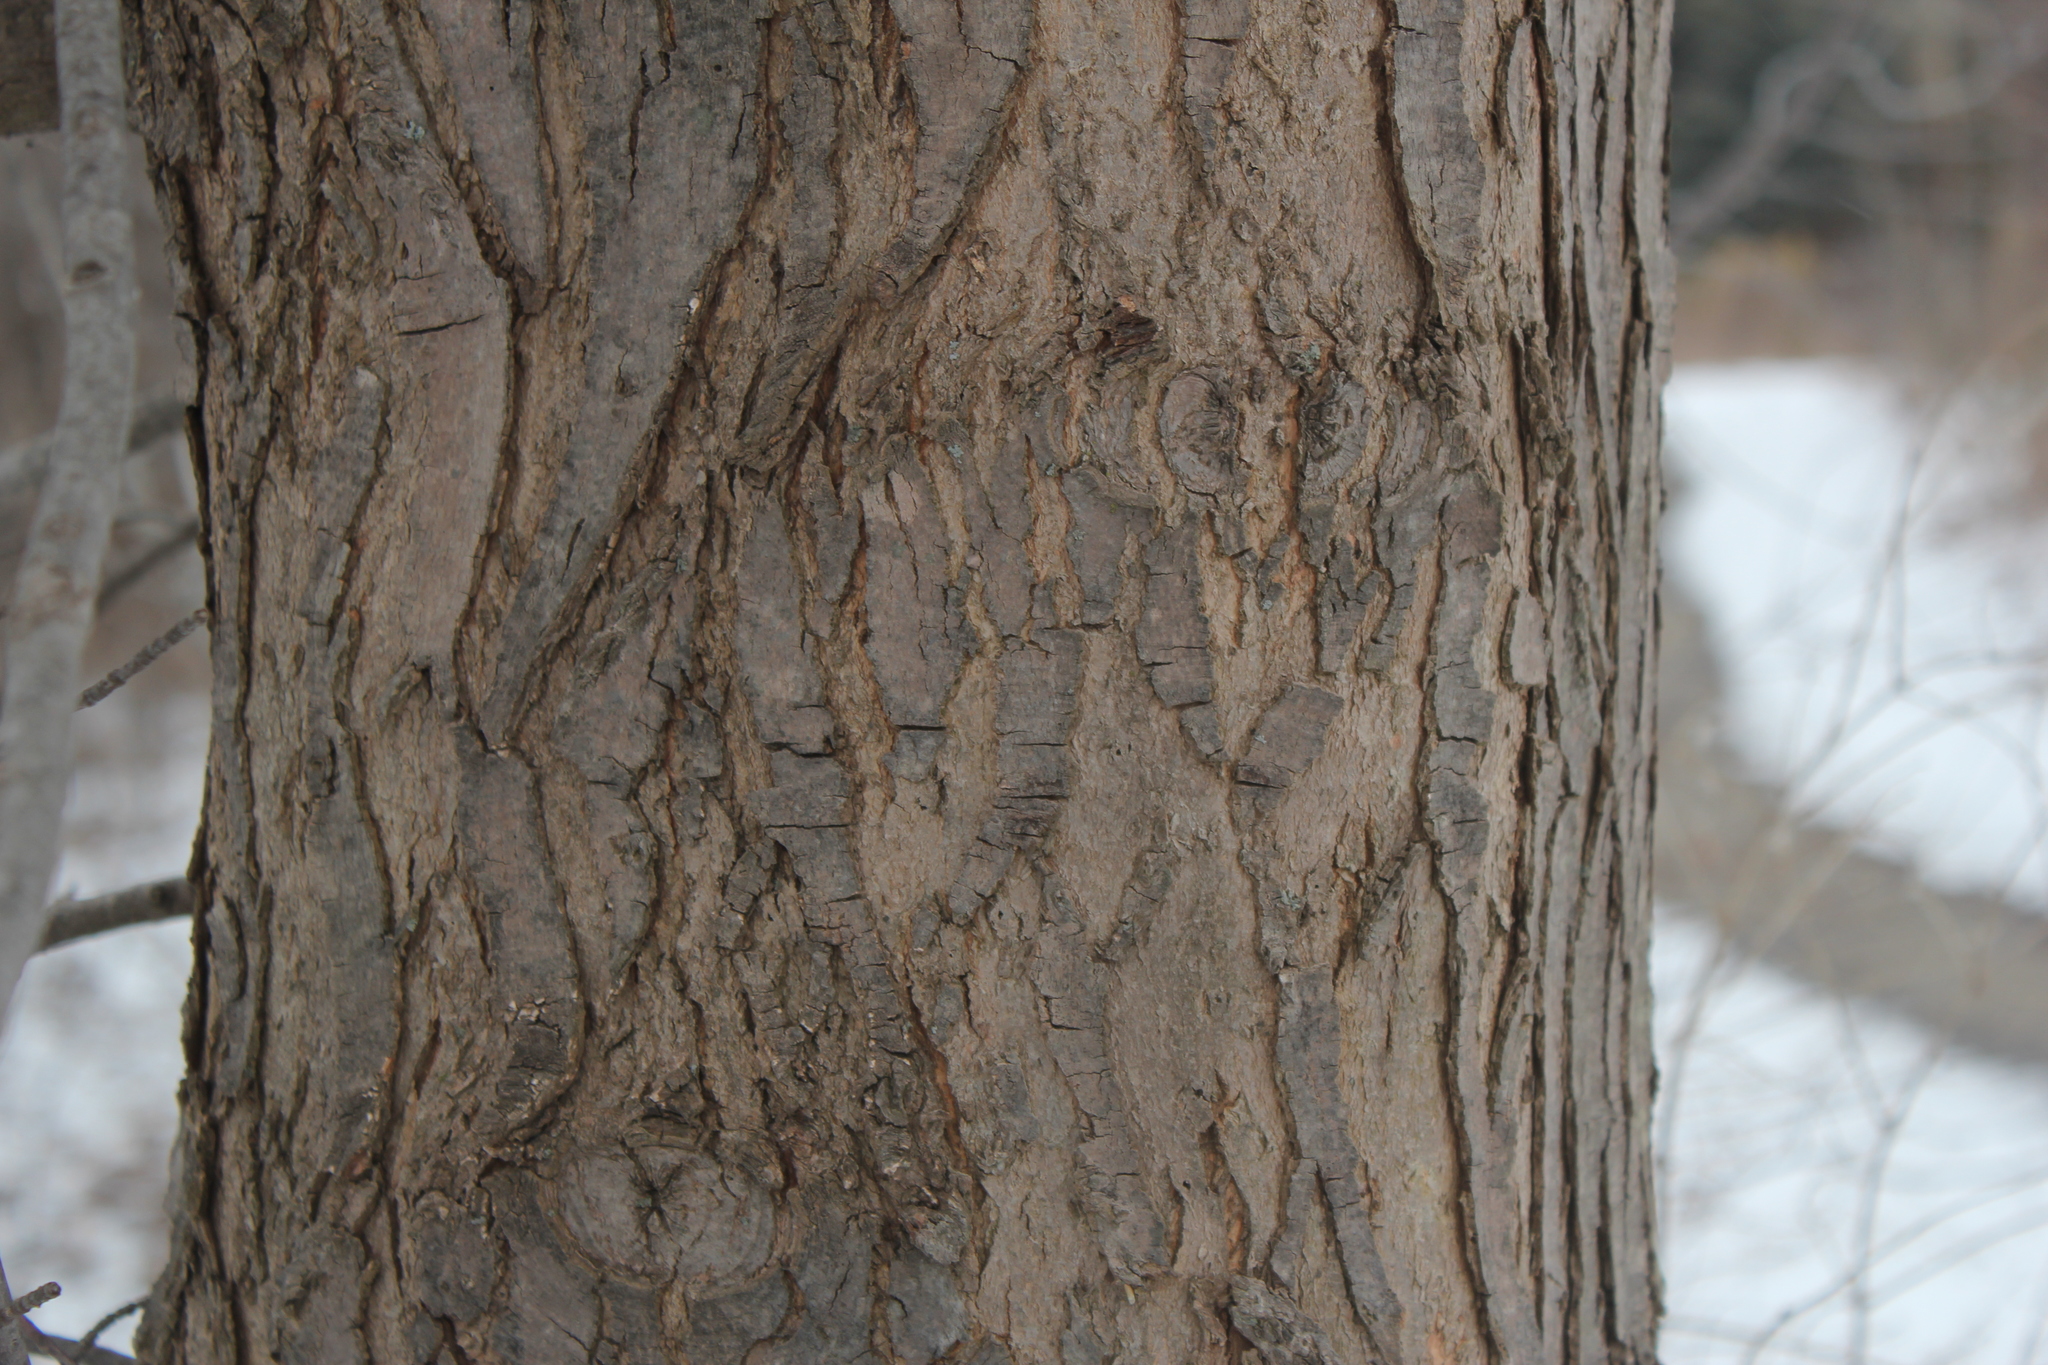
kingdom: Plantae
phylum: Tracheophyta
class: Magnoliopsida
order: Sapindales
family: Sapindaceae
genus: Acer
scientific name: Acer rubrum
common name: Red maple
